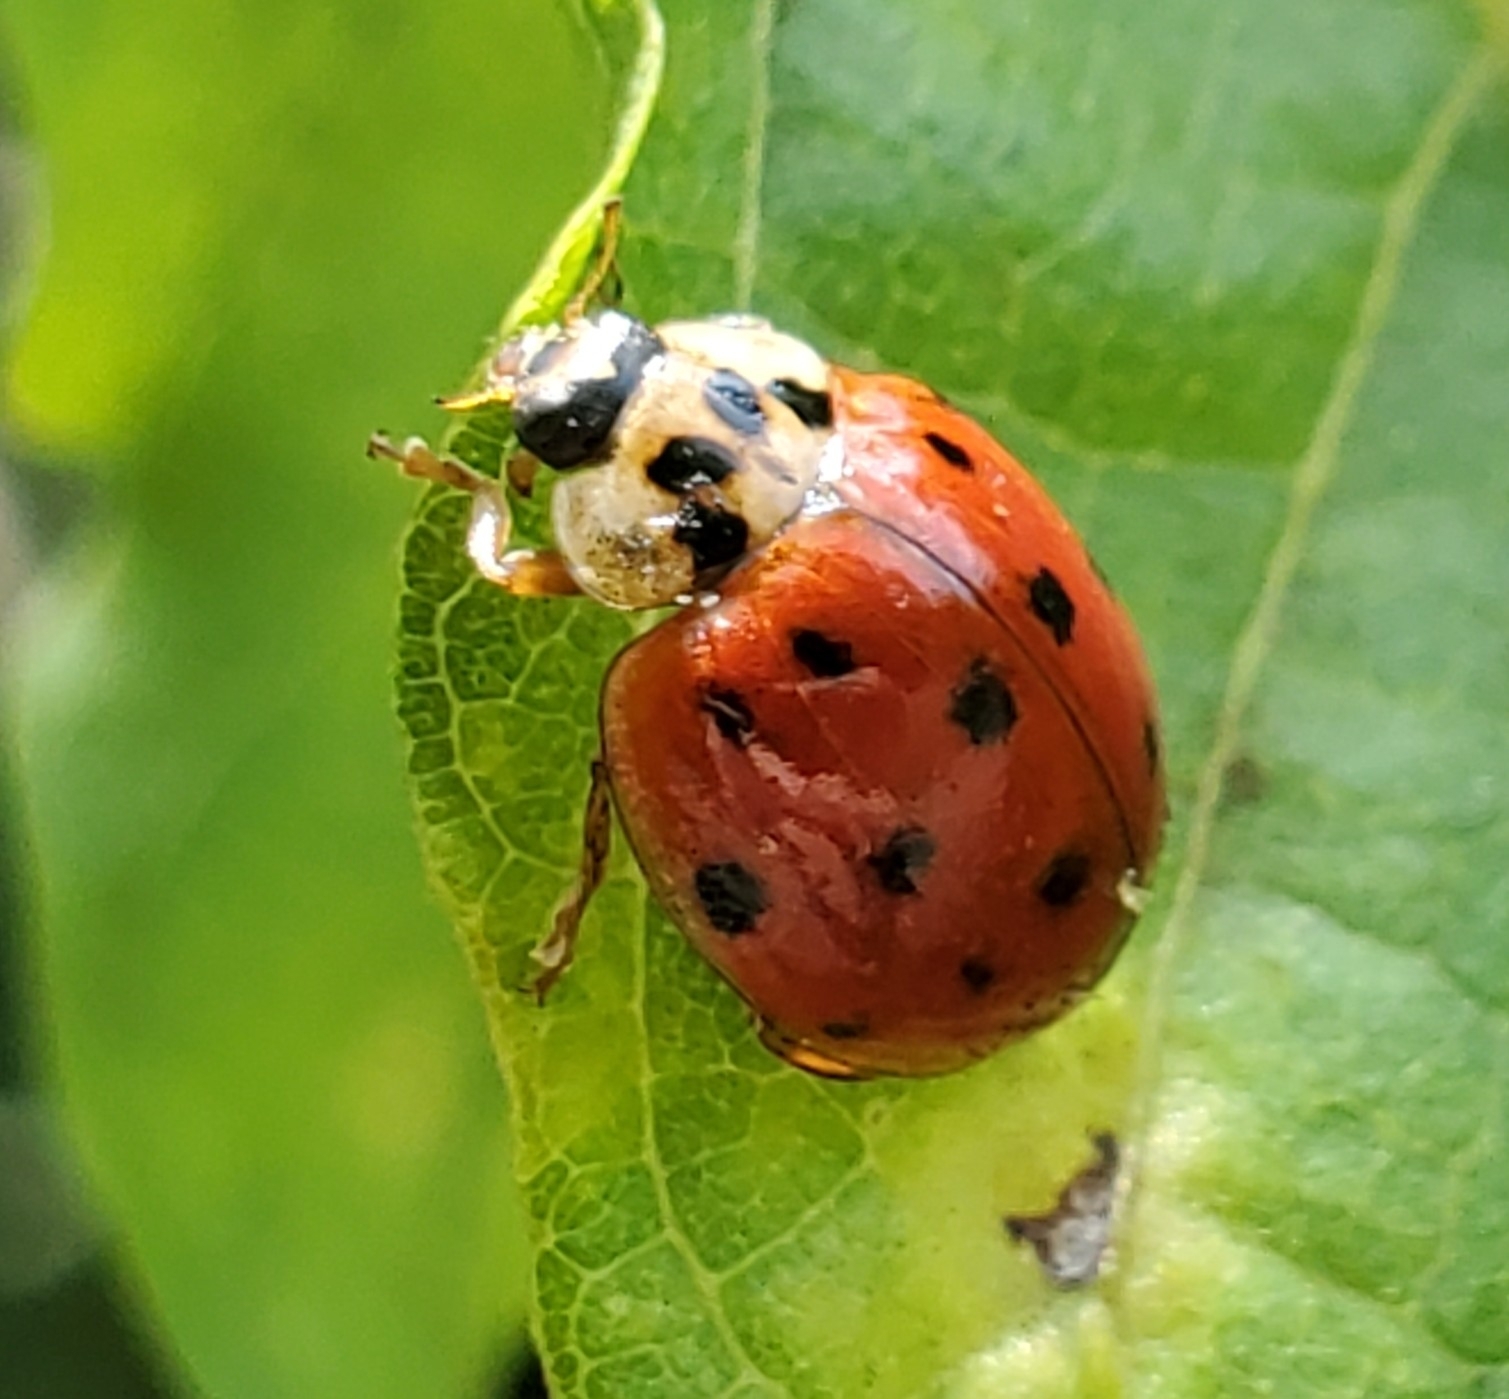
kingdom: Animalia
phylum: Arthropoda
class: Insecta
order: Coleoptera
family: Coccinellidae
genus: Harmonia
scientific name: Harmonia axyridis
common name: Harlequin ladybird
